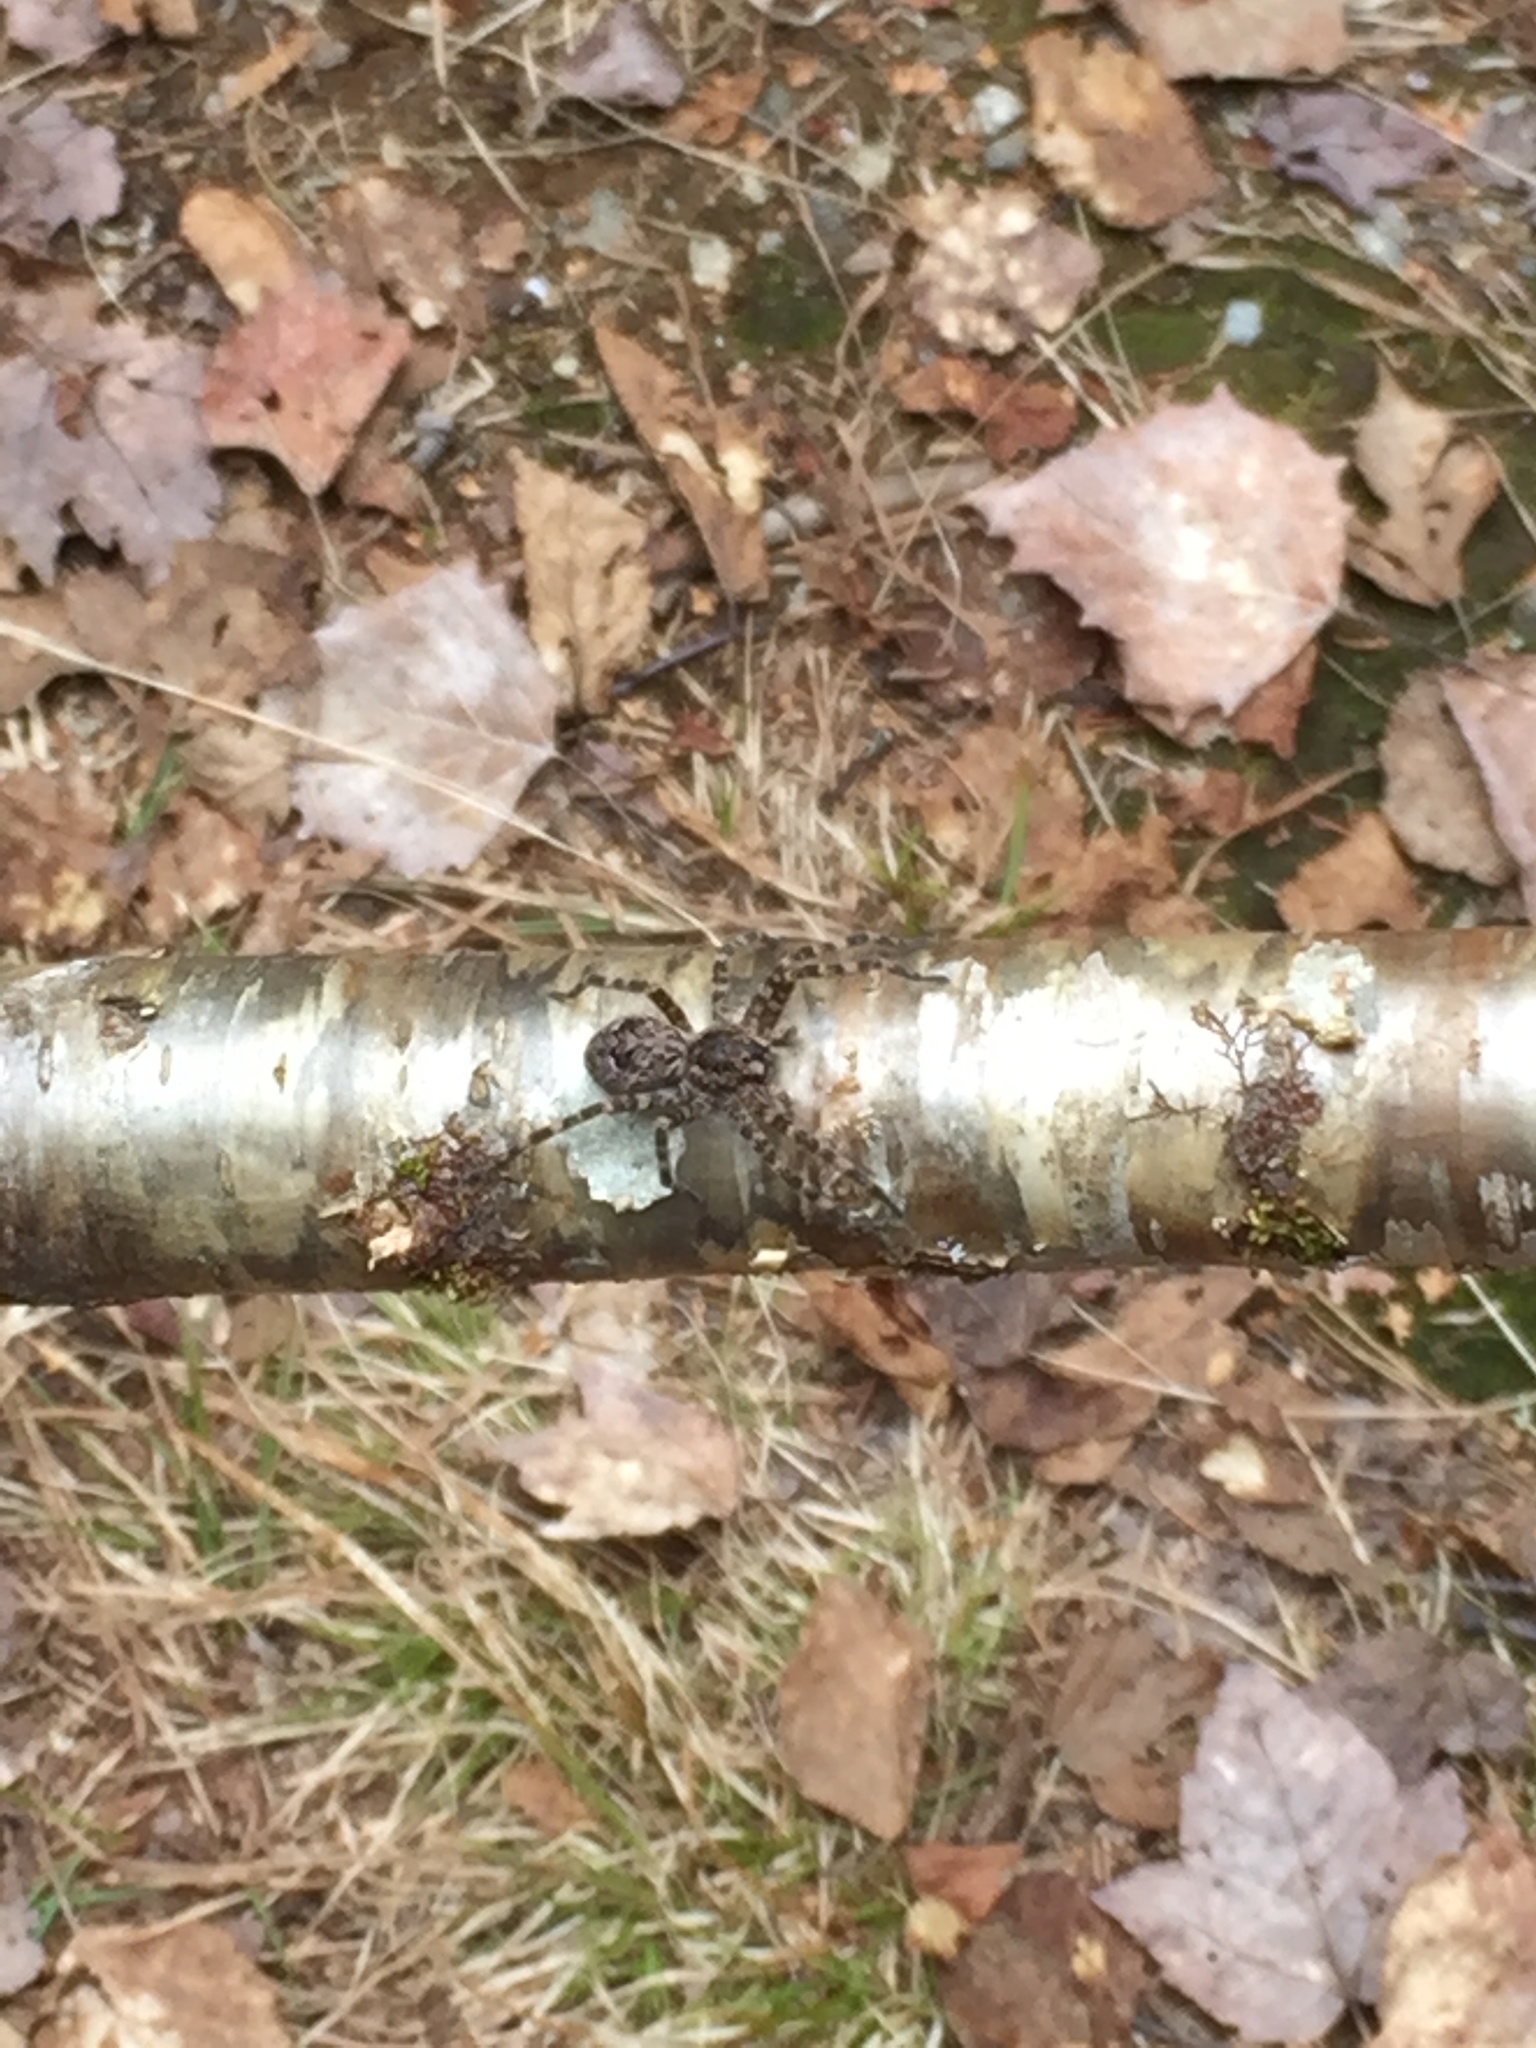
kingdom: Animalia
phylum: Arthropoda
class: Arachnida
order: Araneae
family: Pisauridae
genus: Dolomedes
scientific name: Dolomedes tenebrosus
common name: Dark fishing spider
